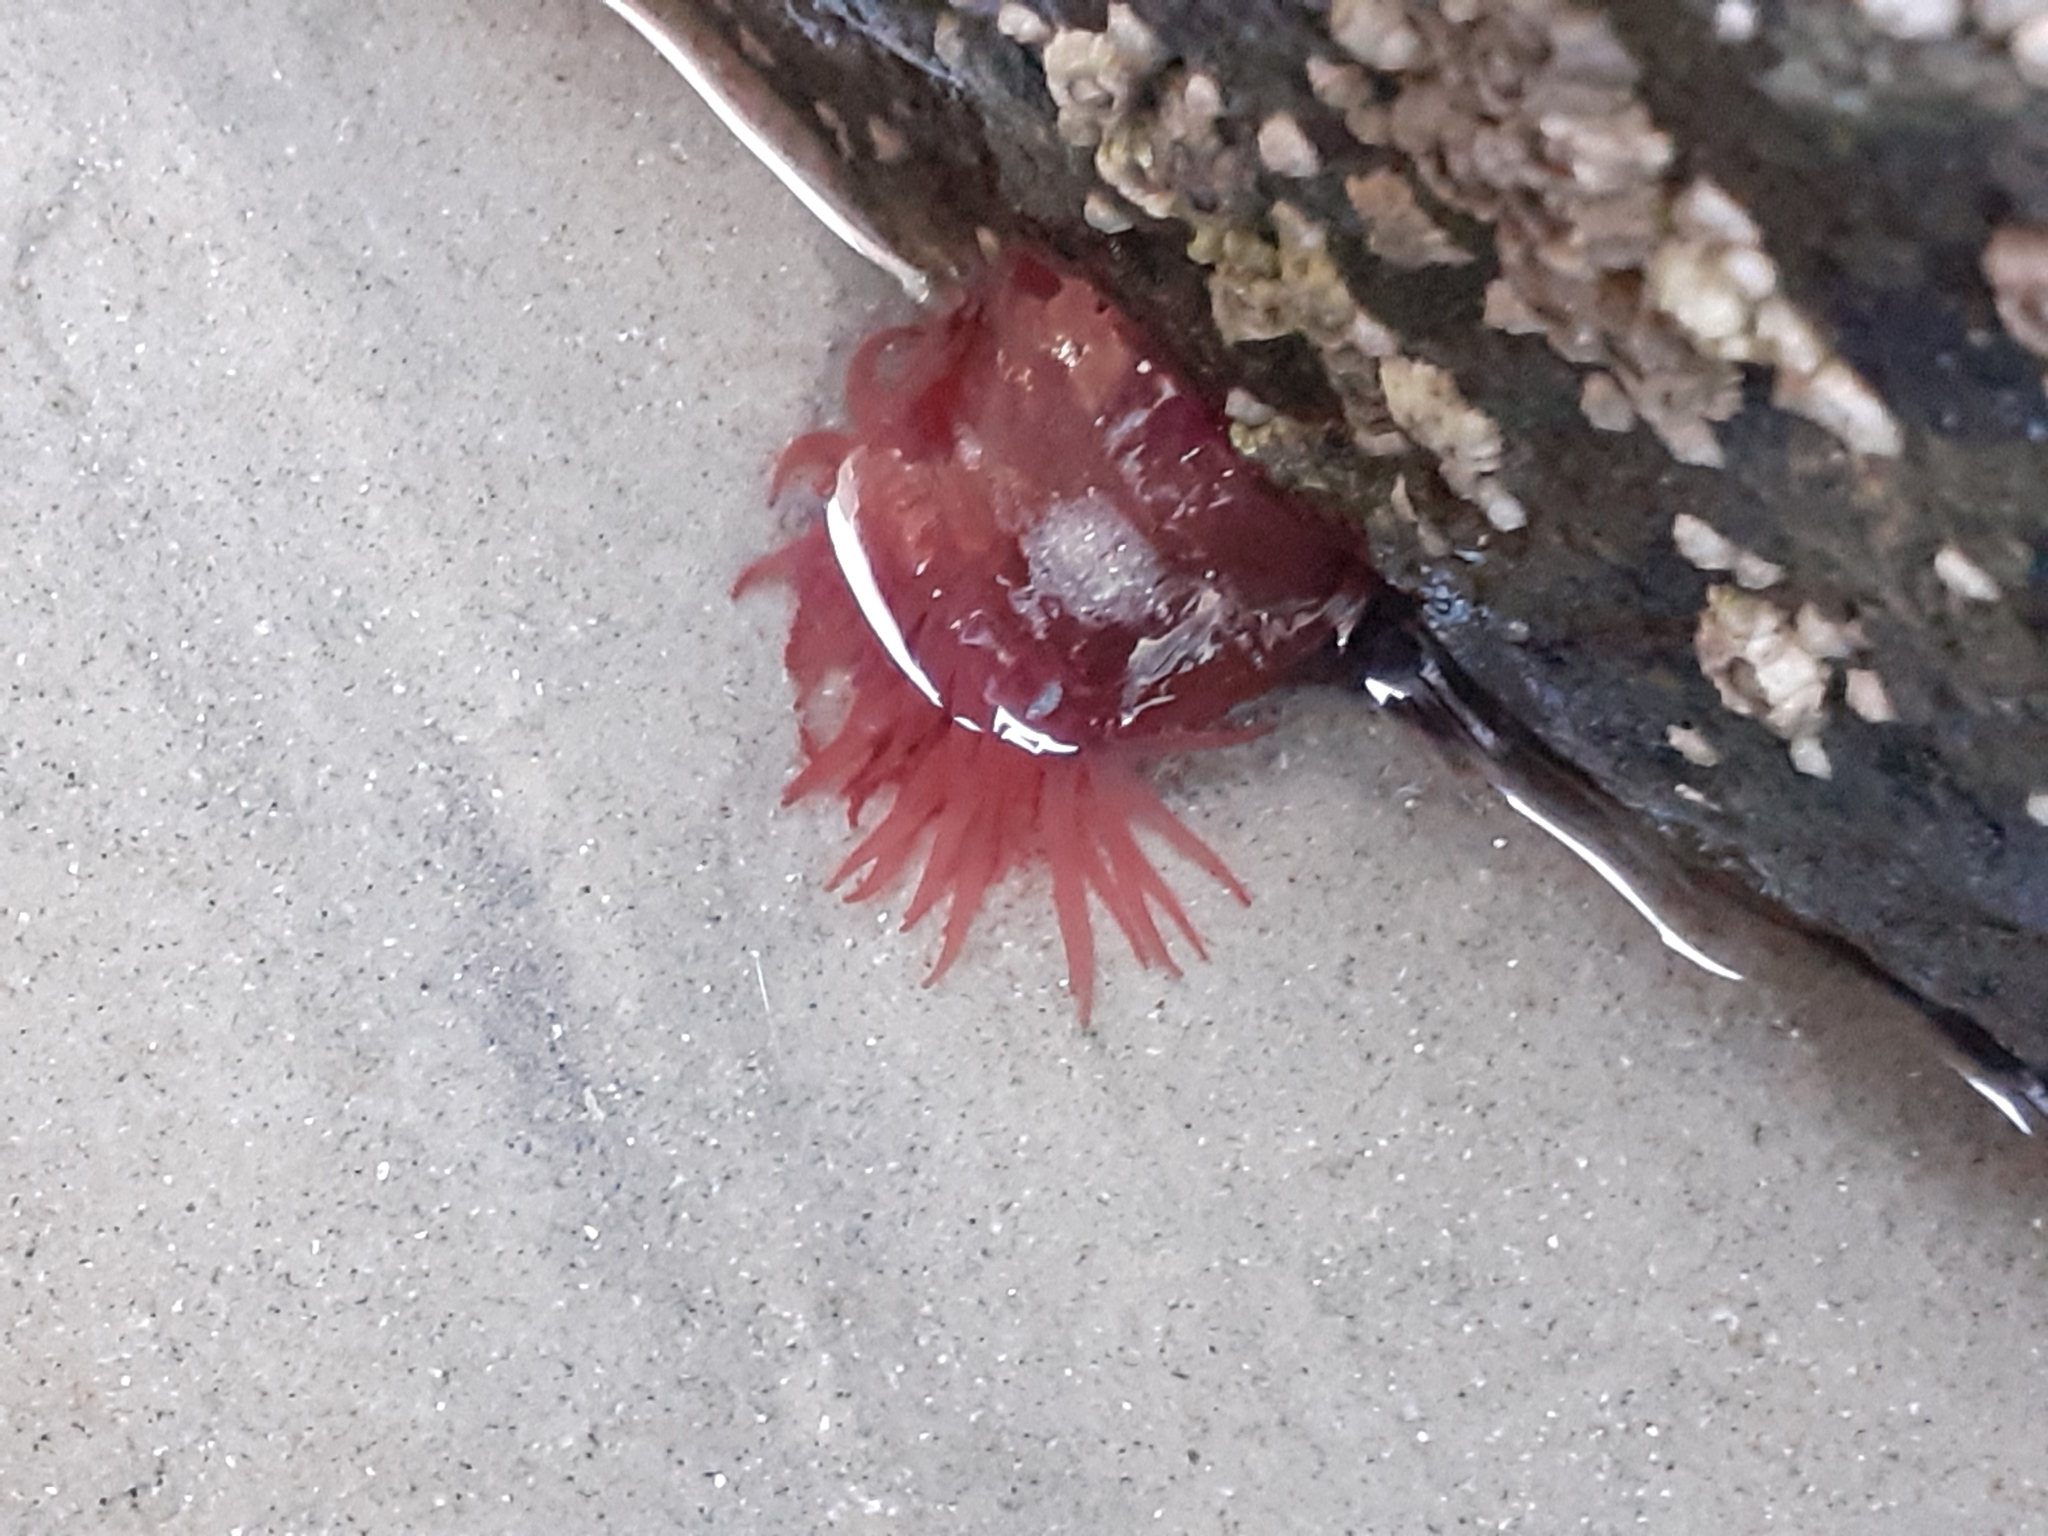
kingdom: Animalia
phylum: Cnidaria
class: Anthozoa
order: Actiniaria
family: Actiniidae
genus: Actinia
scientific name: Actinia equina
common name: Beadlet anemone
